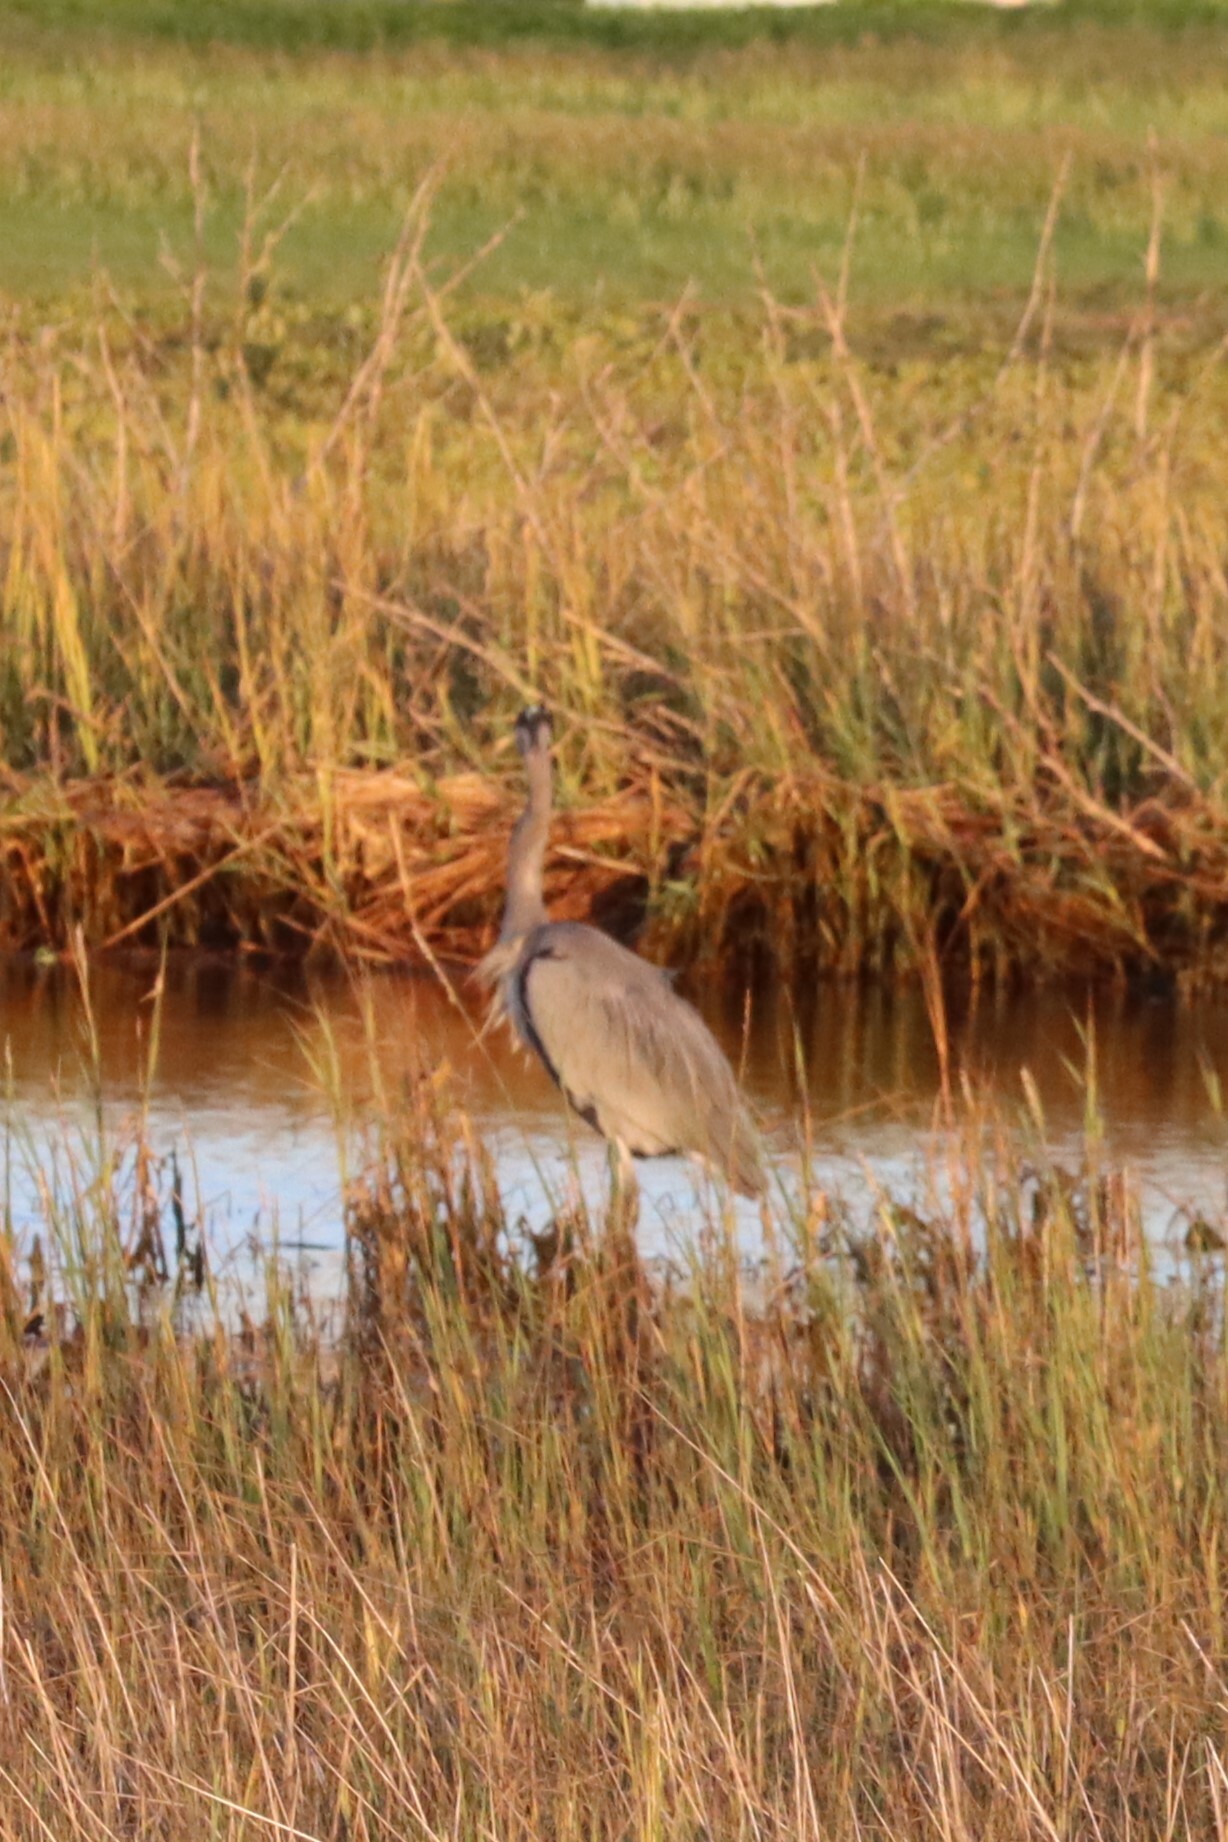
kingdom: Animalia
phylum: Chordata
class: Aves
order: Pelecaniformes
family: Ardeidae
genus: Ardea
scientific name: Ardea herodias
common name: Great blue heron
